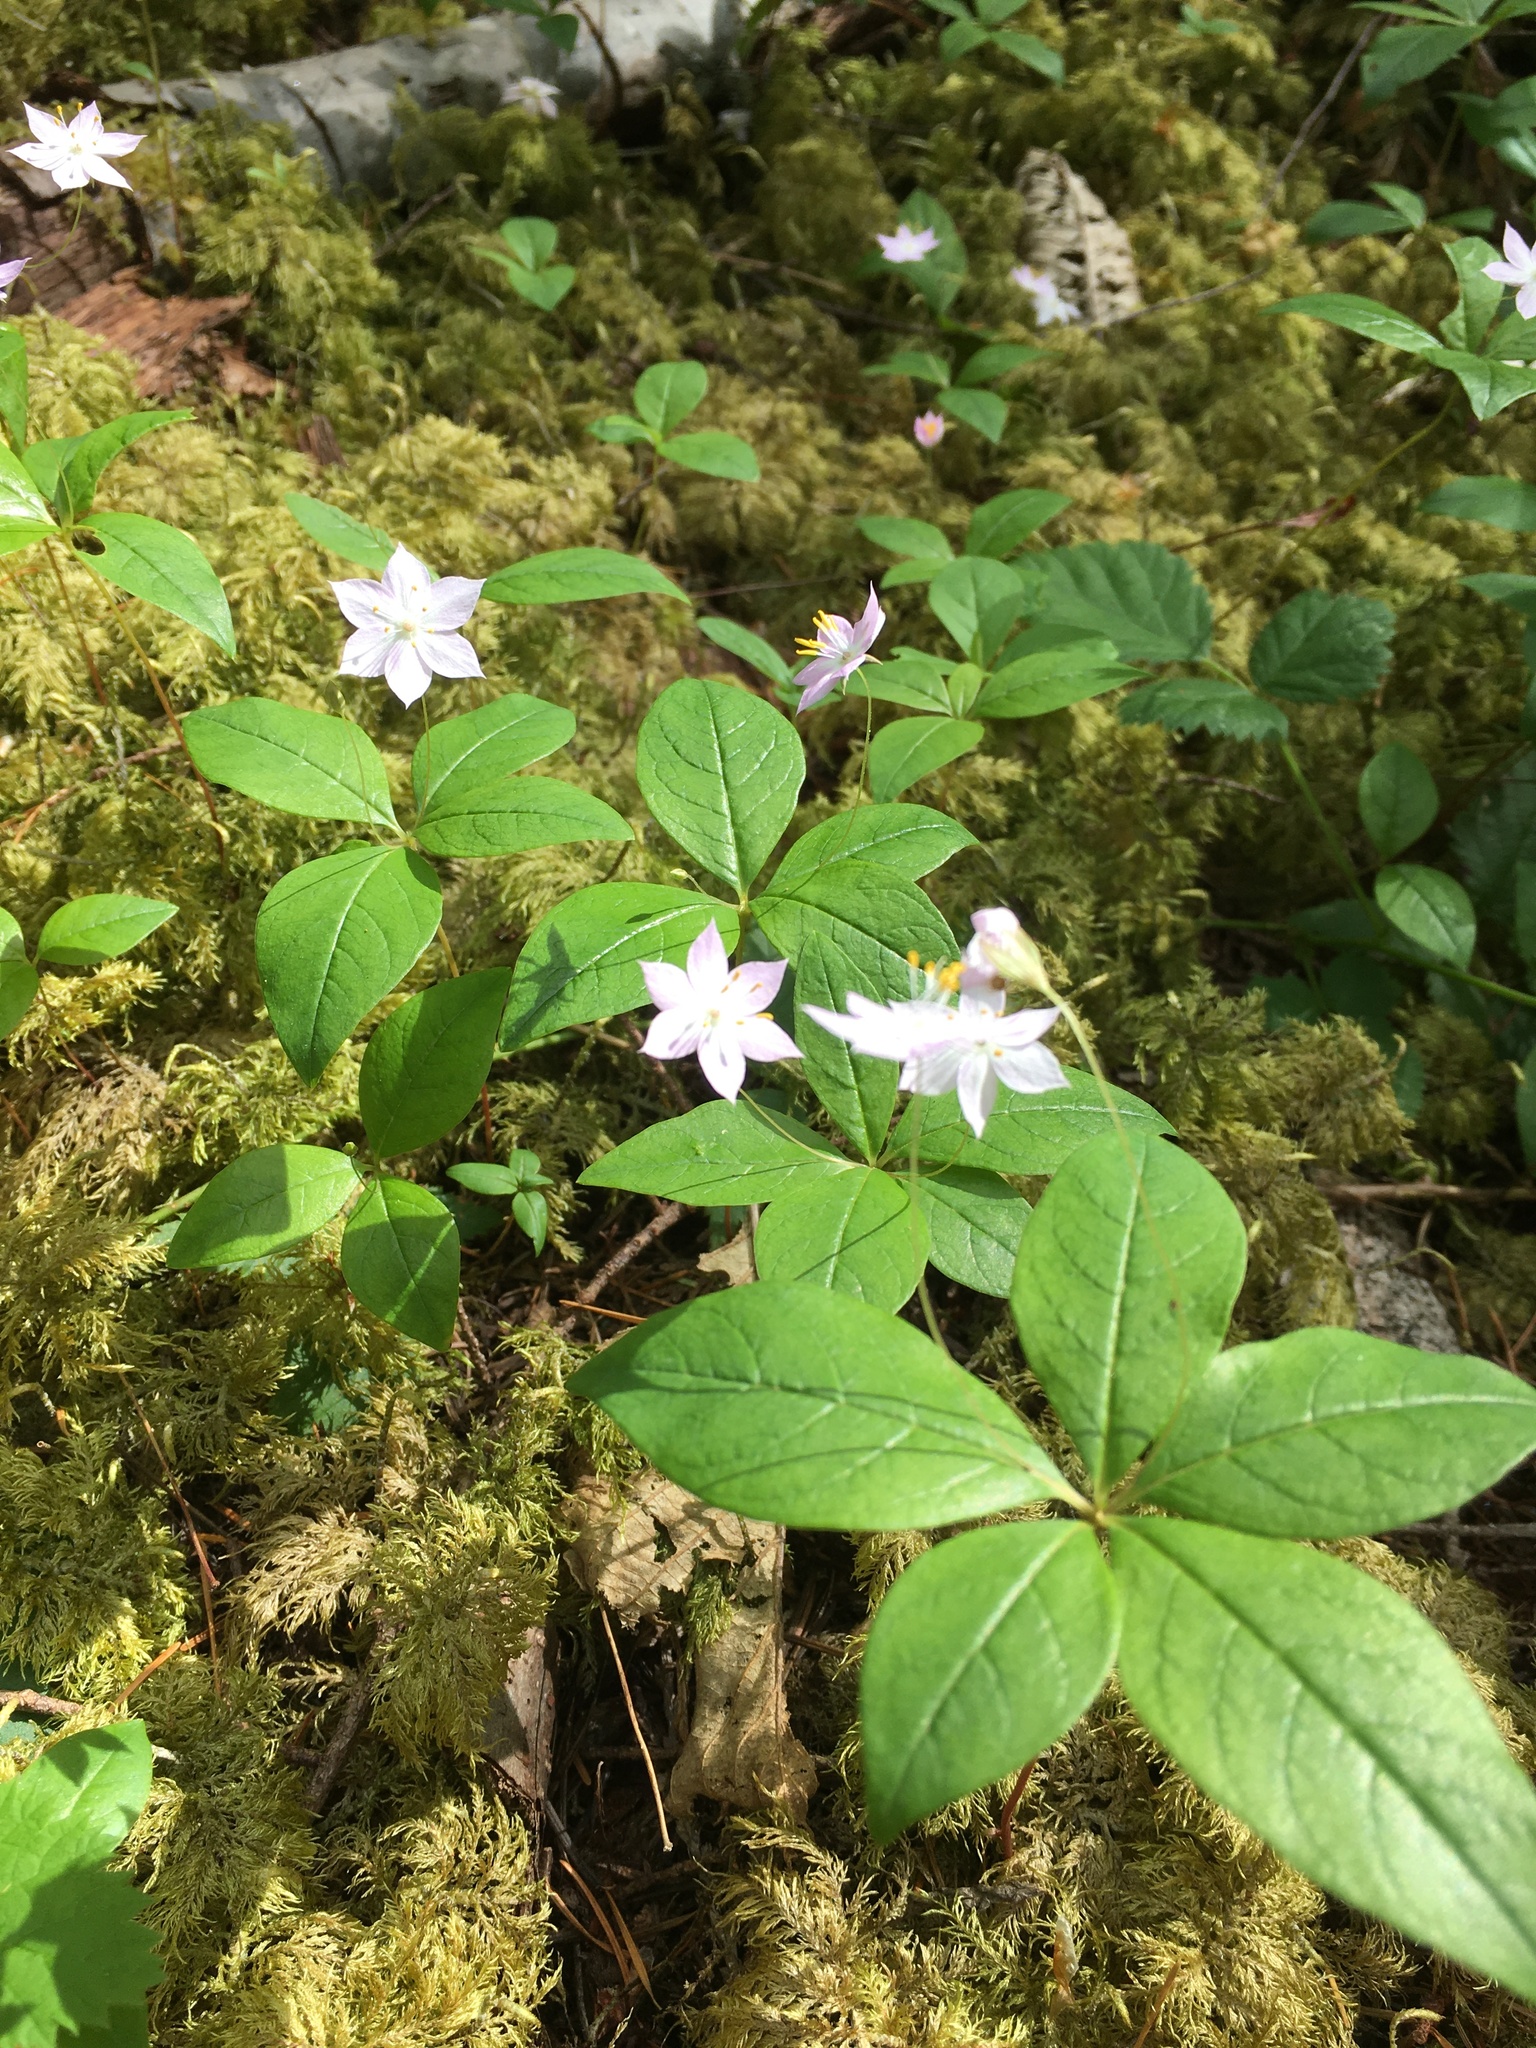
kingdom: Plantae
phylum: Tracheophyta
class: Magnoliopsida
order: Ericales
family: Primulaceae
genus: Lysimachia
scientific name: Lysimachia latifolia
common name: Pacific starflower
